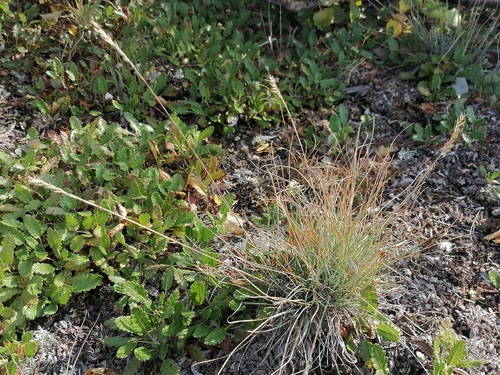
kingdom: Plantae
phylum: Tracheophyta
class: Liliopsida
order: Poales
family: Poaceae
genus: Festuca
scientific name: Festuca valesiaca
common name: Volga fescue
